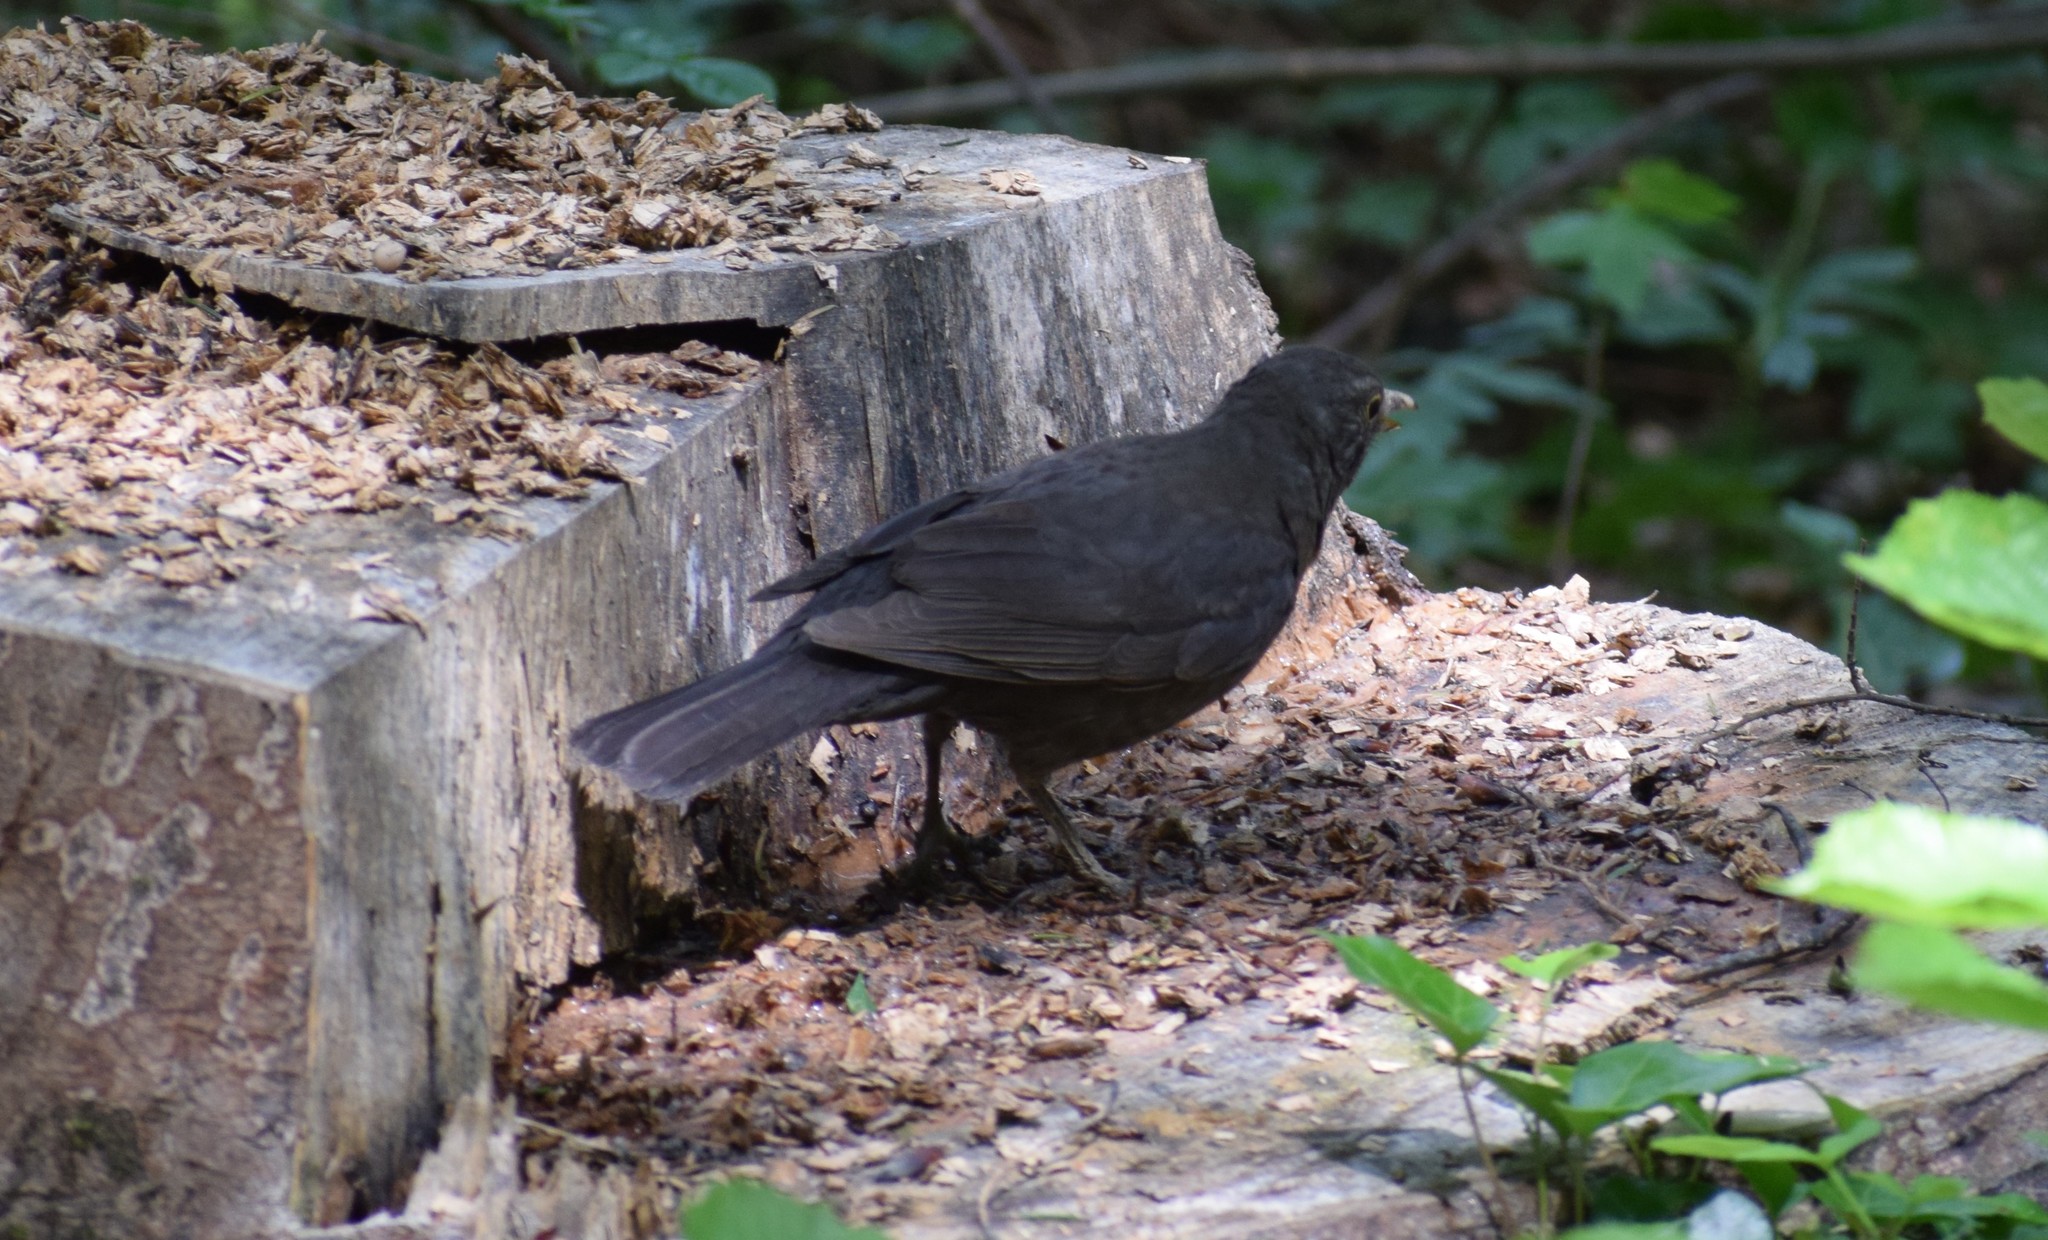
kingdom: Animalia
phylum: Chordata
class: Aves
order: Passeriformes
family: Turdidae
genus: Turdus
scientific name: Turdus merula
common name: Common blackbird
